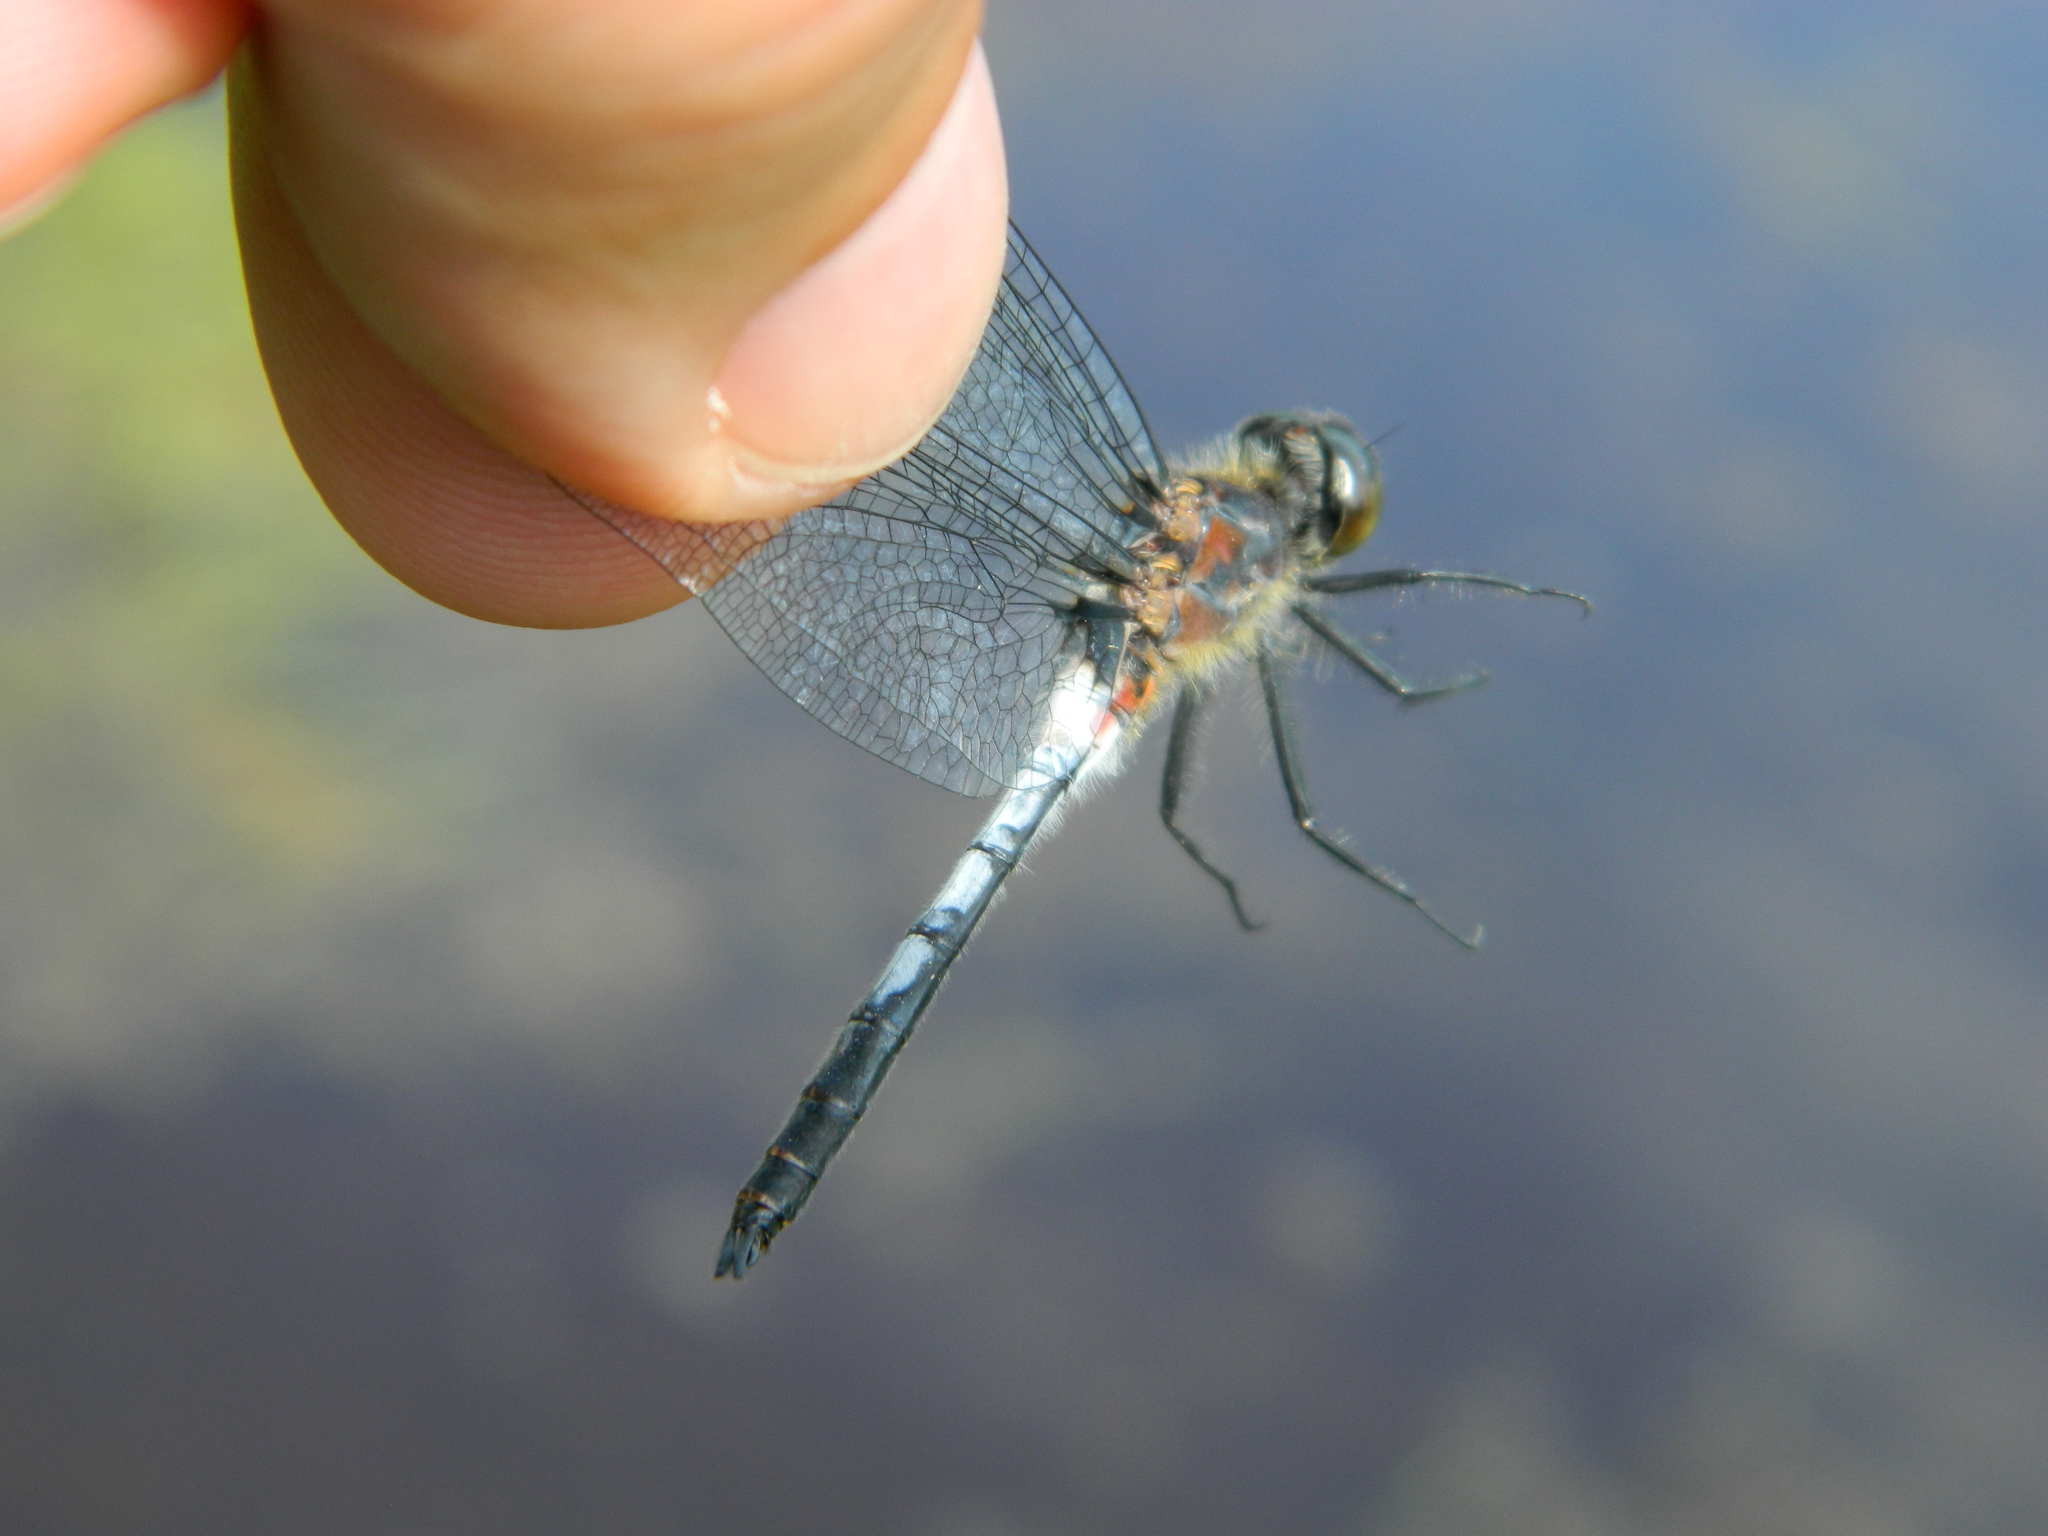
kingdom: Animalia
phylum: Arthropoda
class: Insecta
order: Odonata
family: Libellulidae
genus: Leucorrhinia
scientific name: Leucorrhinia proxima
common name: Belted whiteface
